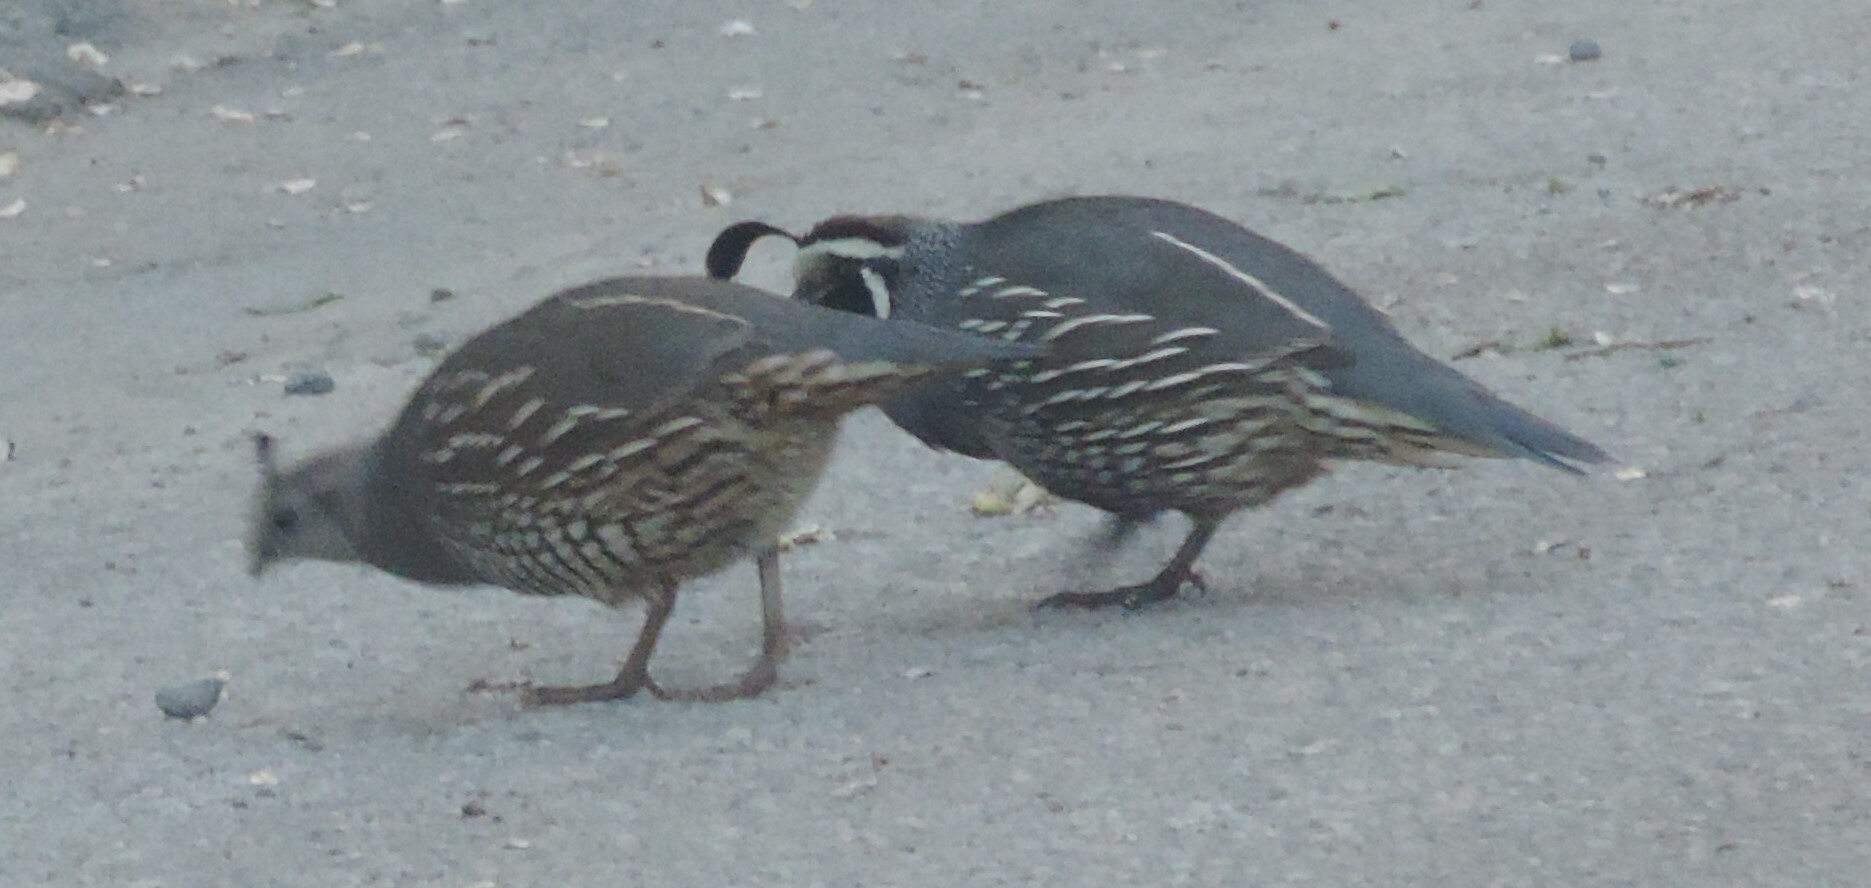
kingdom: Animalia
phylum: Chordata
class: Aves
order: Galliformes
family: Odontophoridae
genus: Callipepla
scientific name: Callipepla californica
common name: California quail
